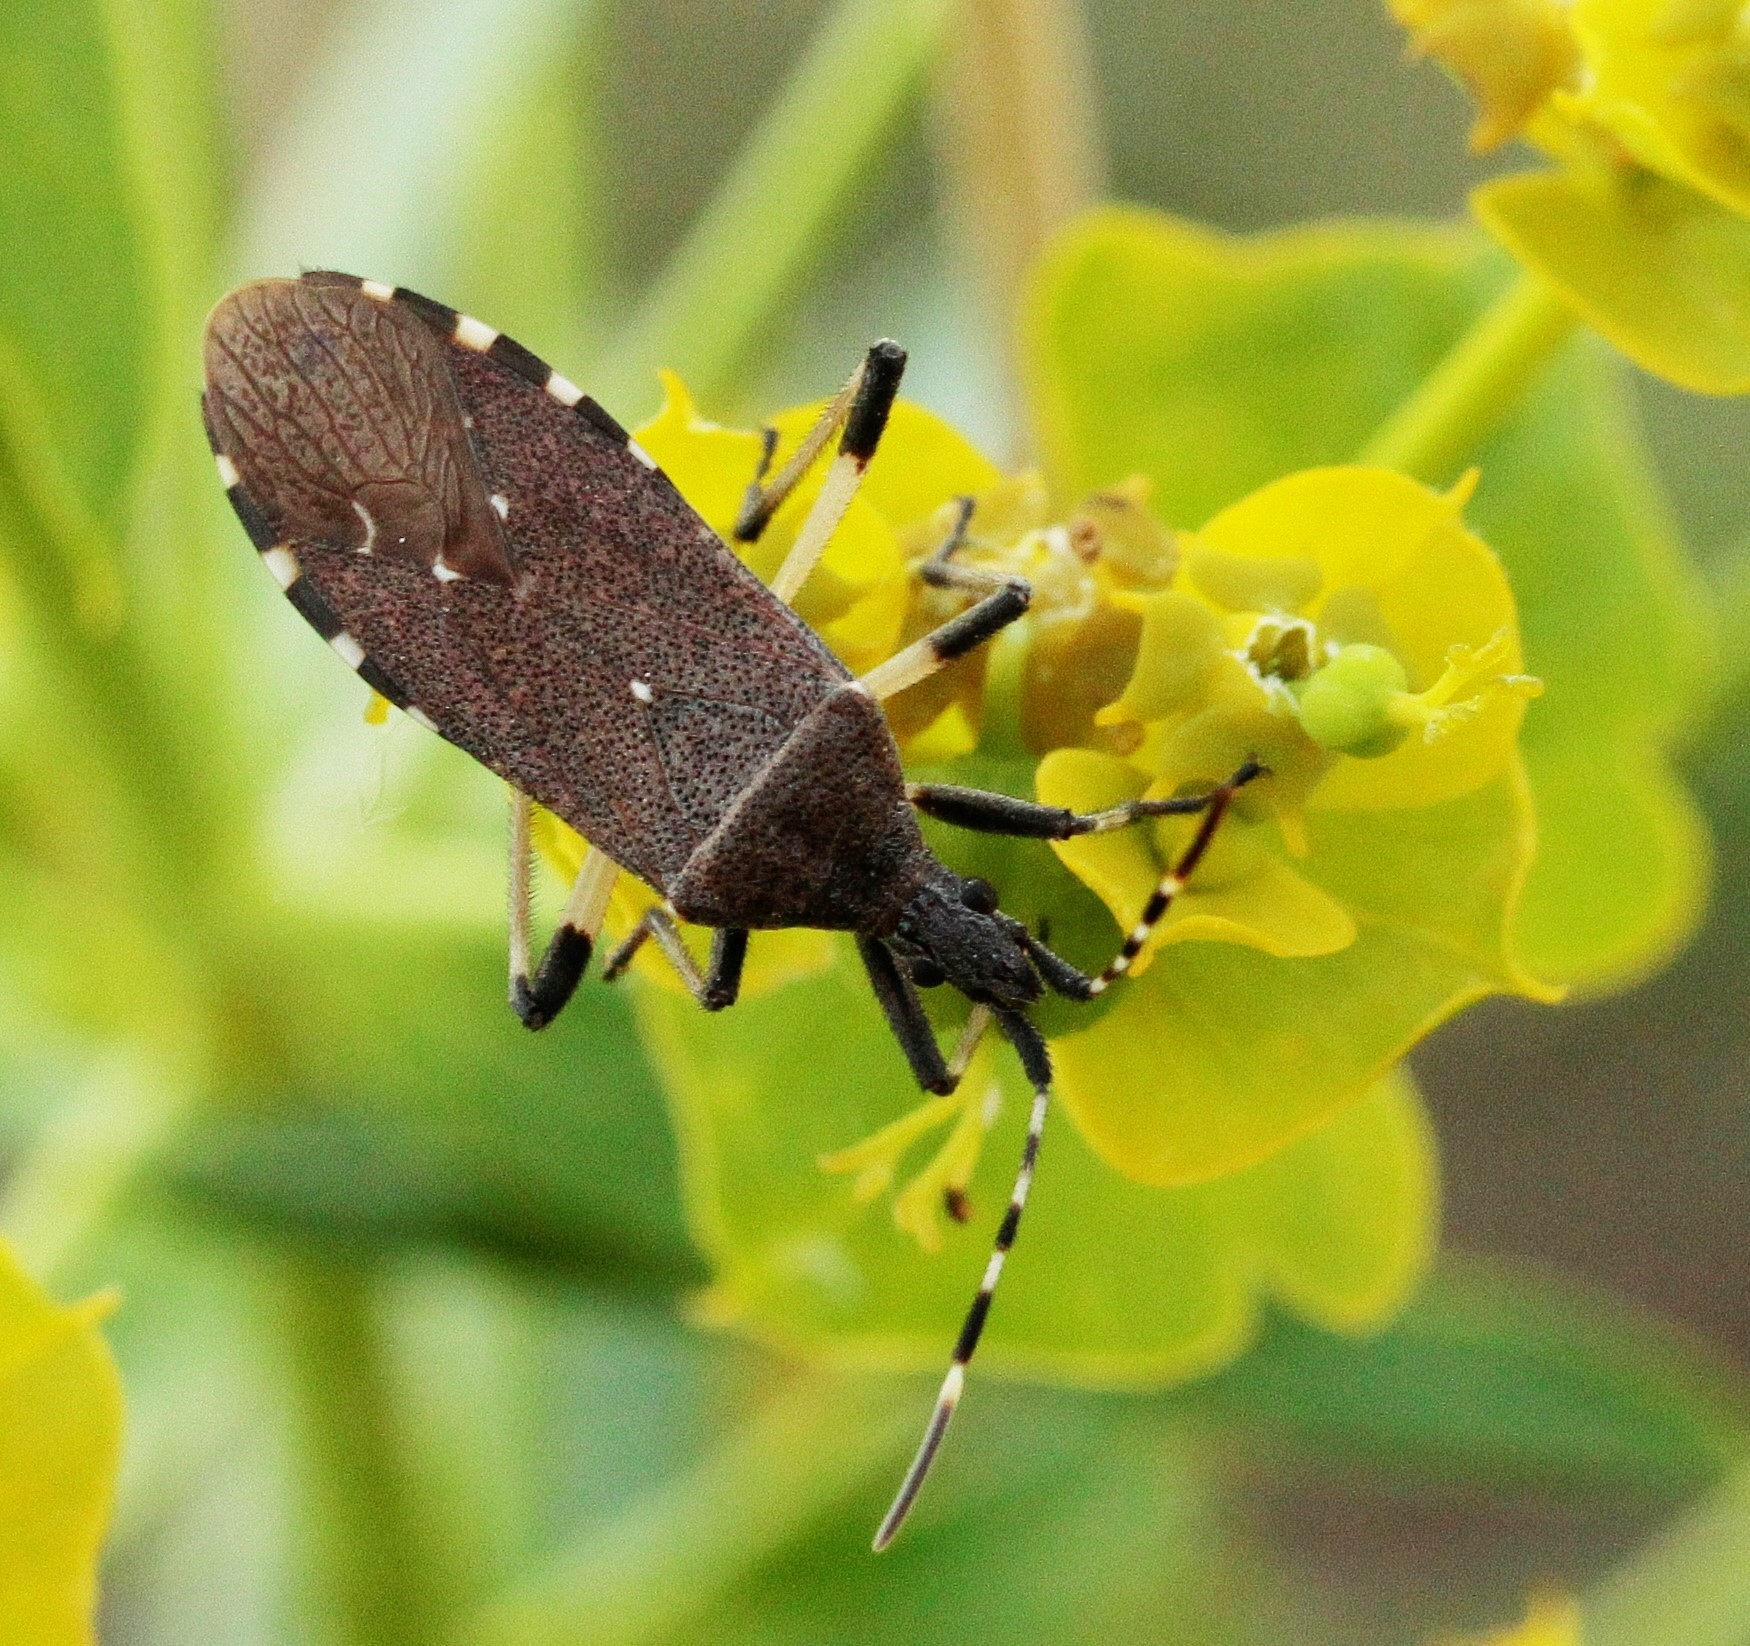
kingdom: Animalia
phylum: Arthropoda
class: Insecta
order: Hemiptera
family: Stenocephalidae
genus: Dicranocephalus
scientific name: Dicranocephalus medius
